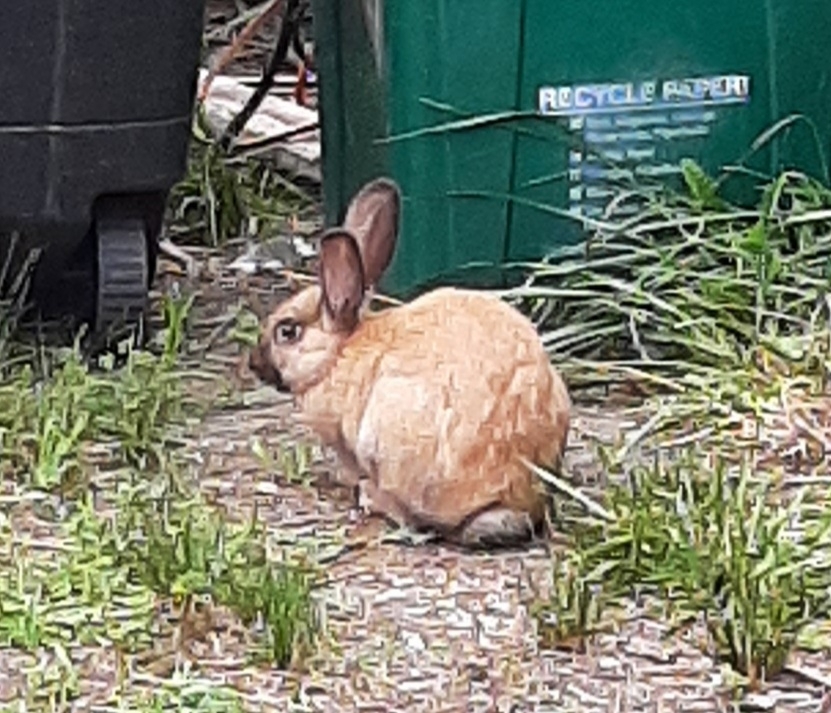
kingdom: Animalia
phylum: Chordata
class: Mammalia
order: Lagomorpha
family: Leporidae
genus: Oryctolagus
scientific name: Oryctolagus cuniculus
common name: European rabbit
